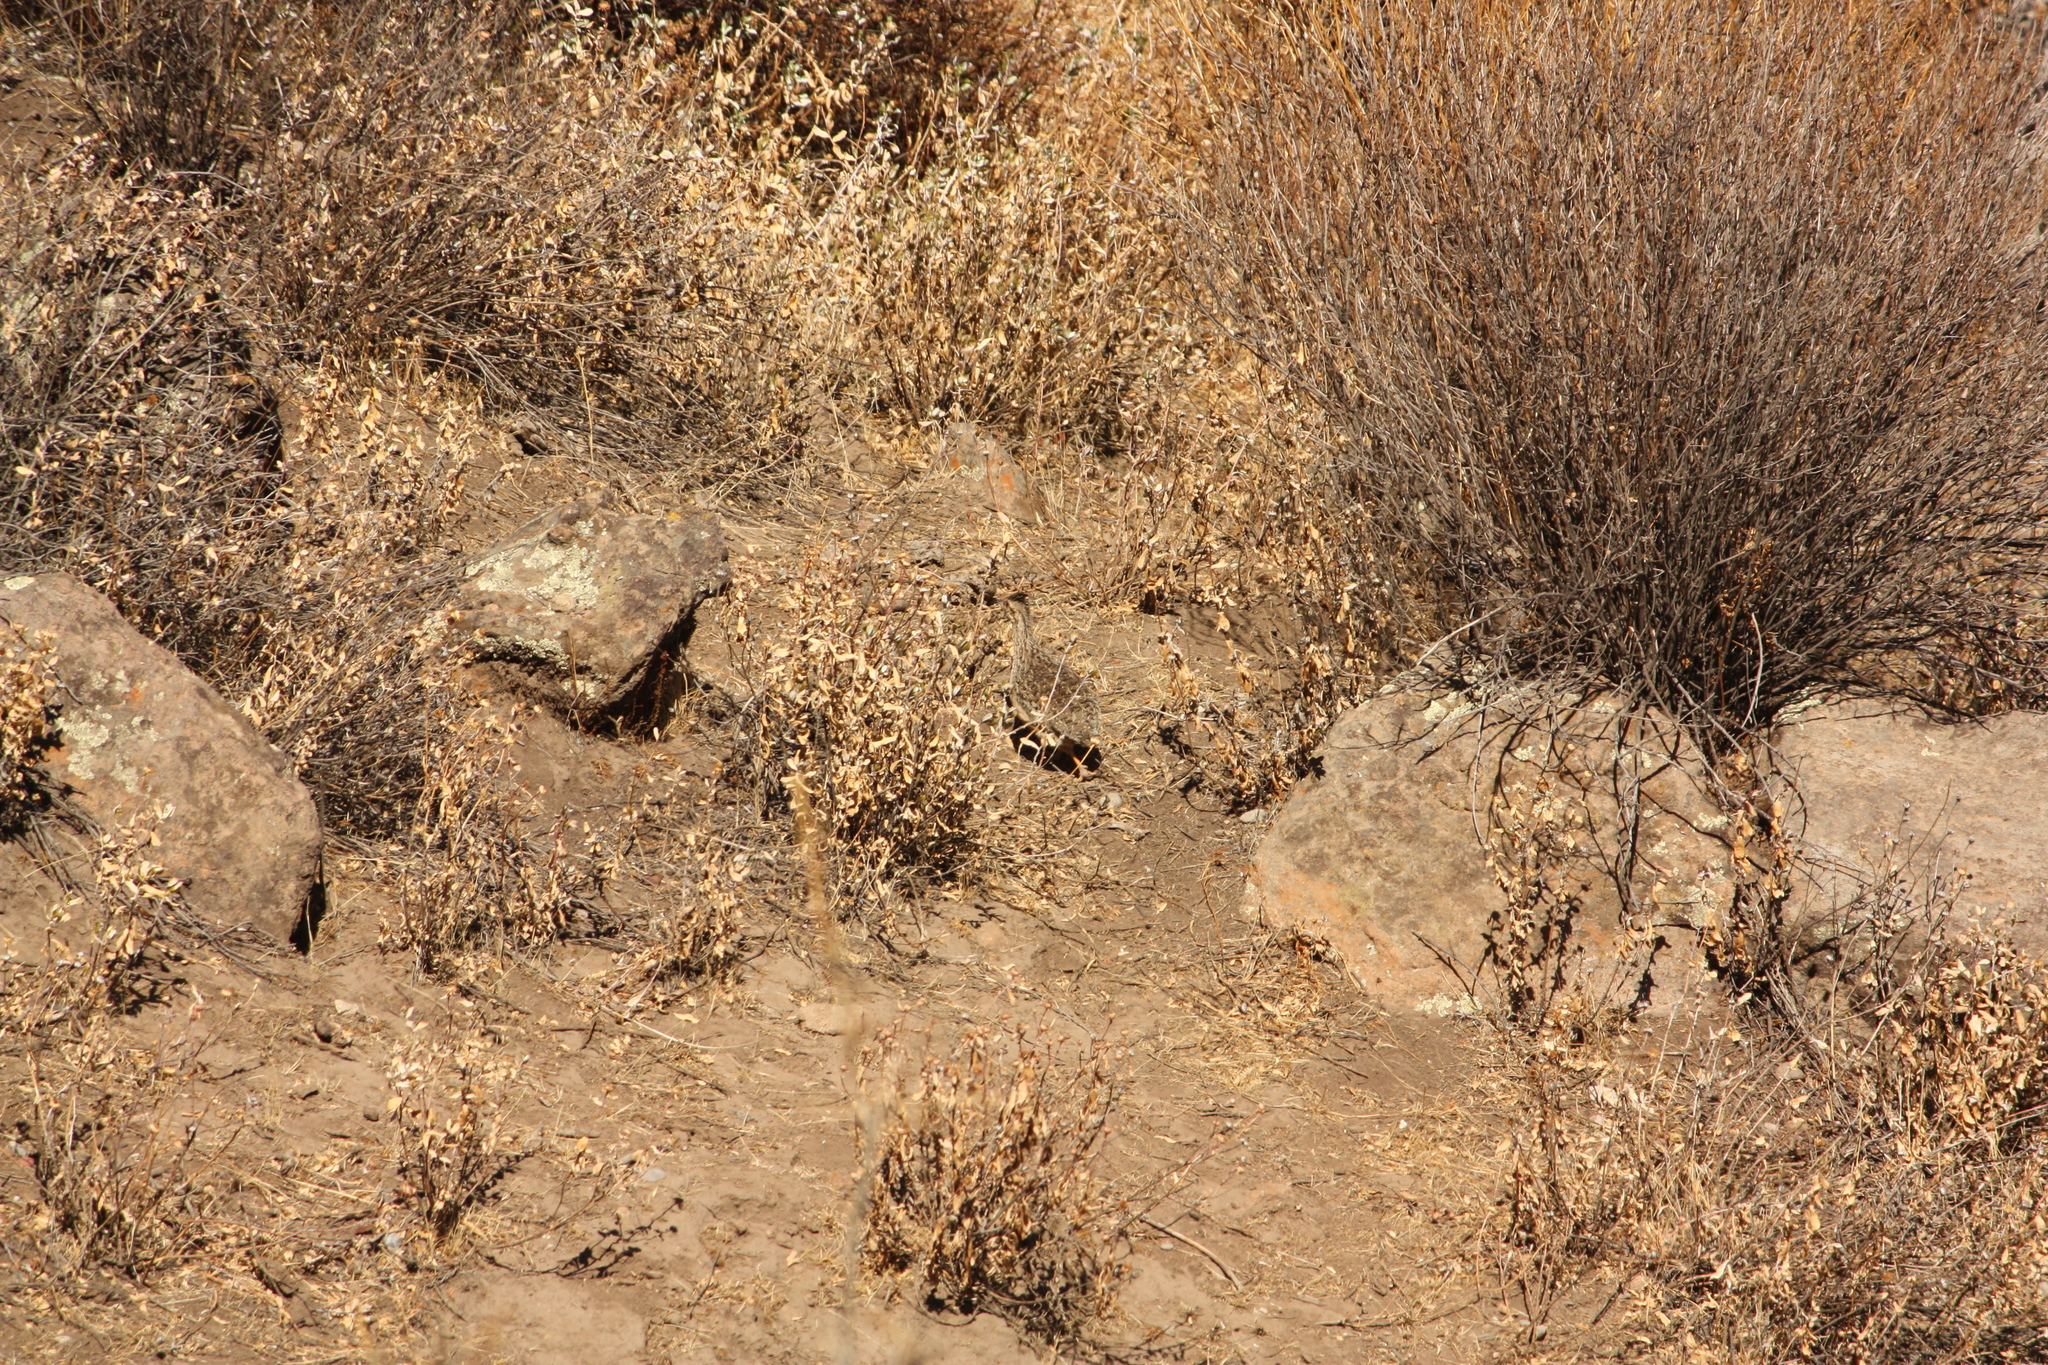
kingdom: Animalia
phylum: Chordata
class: Aves
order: Tinamiformes
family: Tinamidae
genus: Nothoprocta
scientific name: Nothoprocta pentlandii
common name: Andean tinamou
